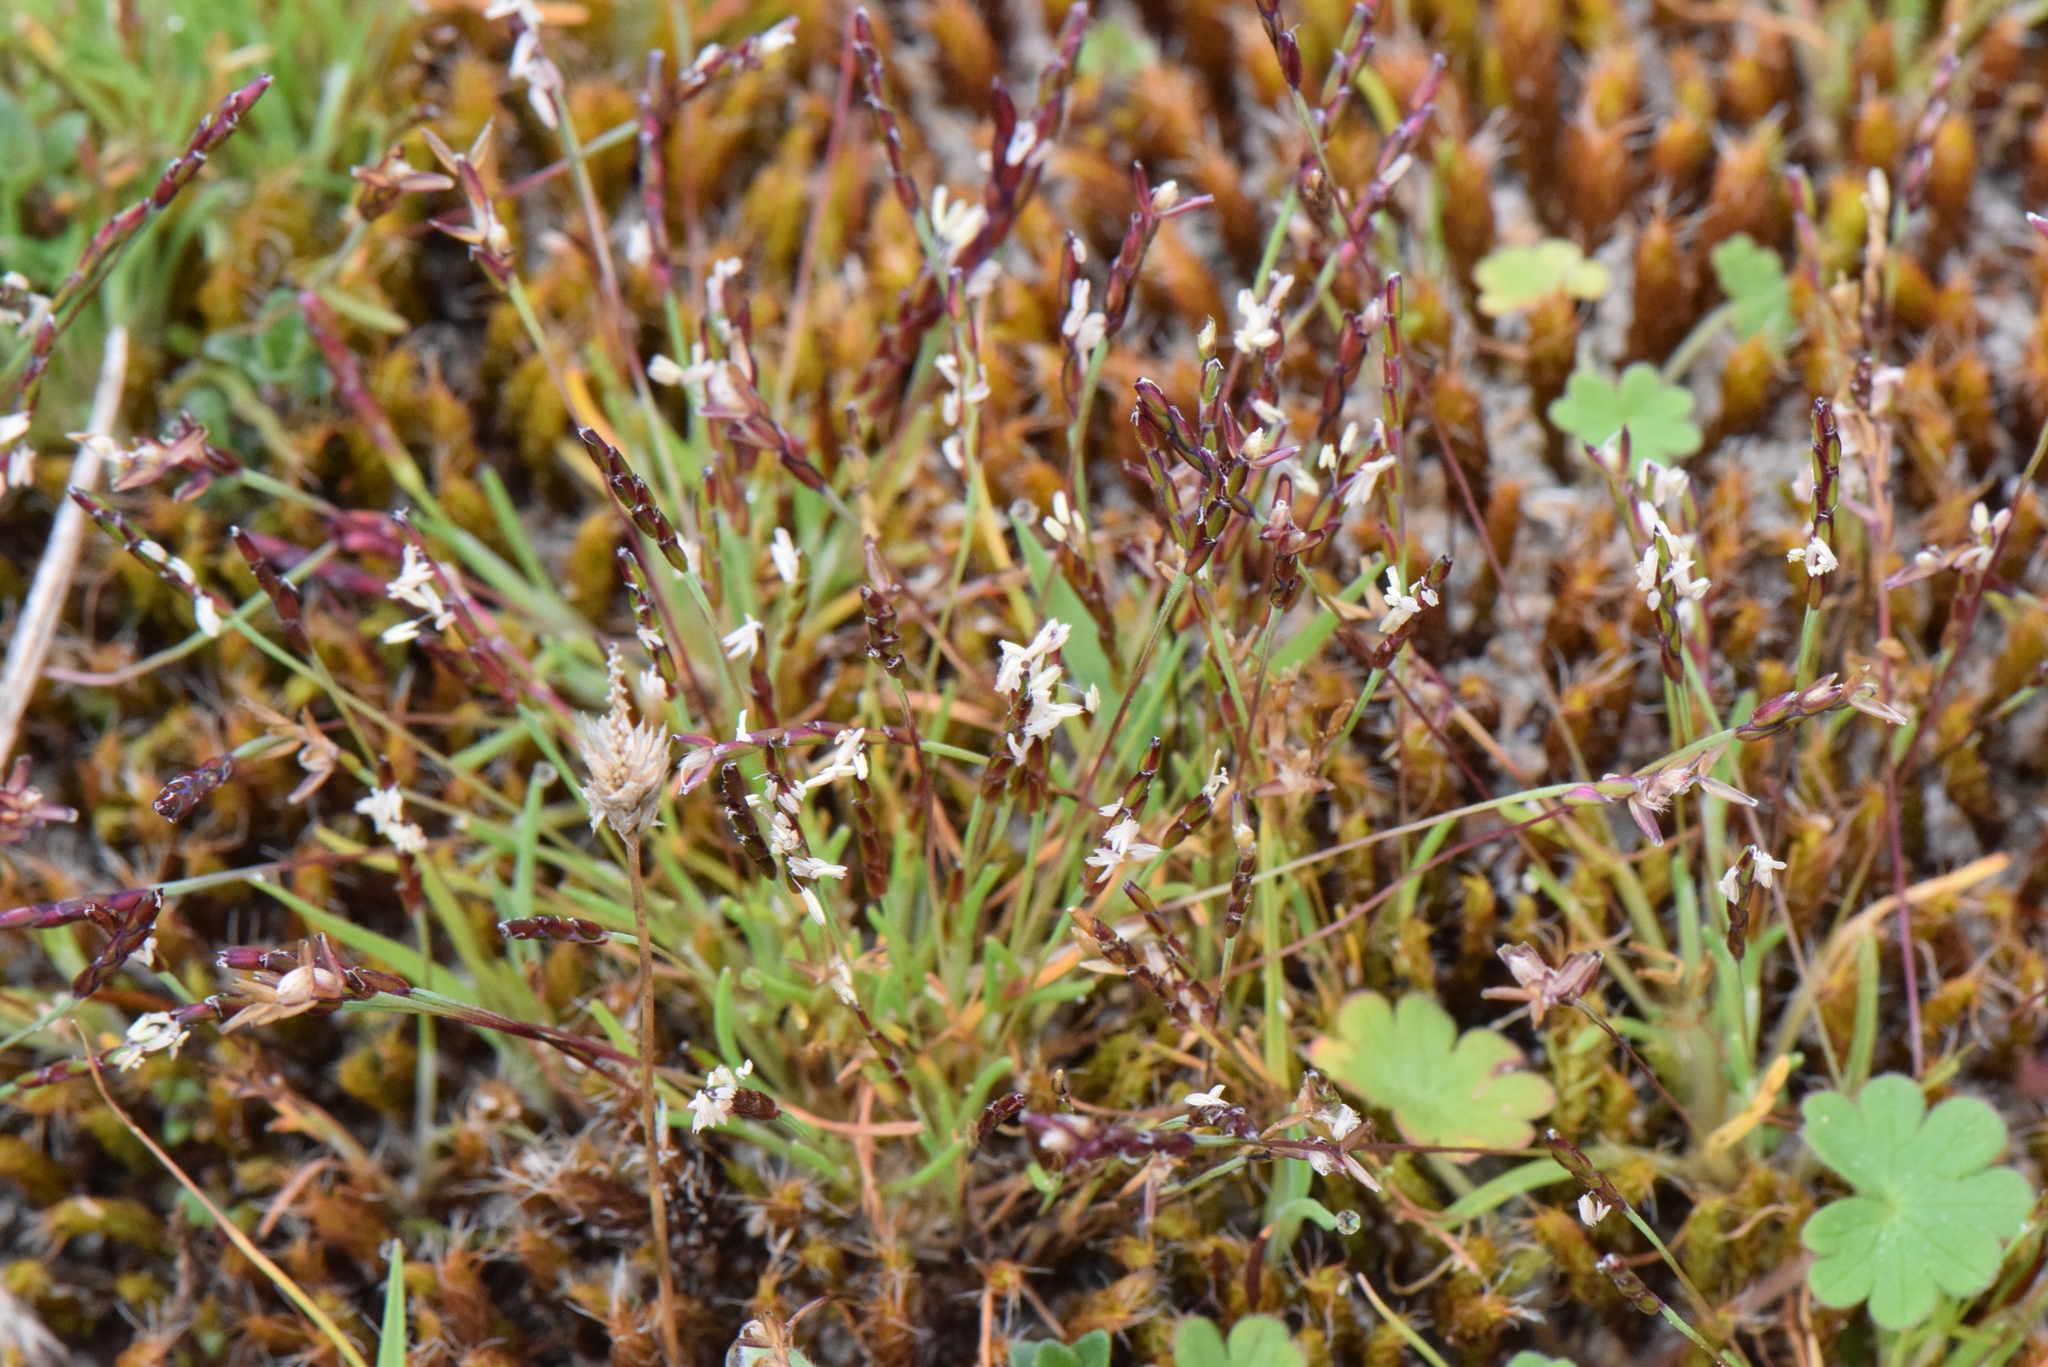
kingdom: Plantae
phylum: Tracheophyta
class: Liliopsida
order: Poales
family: Poaceae
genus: Mibora
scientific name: Mibora minima
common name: Early sand-grass
